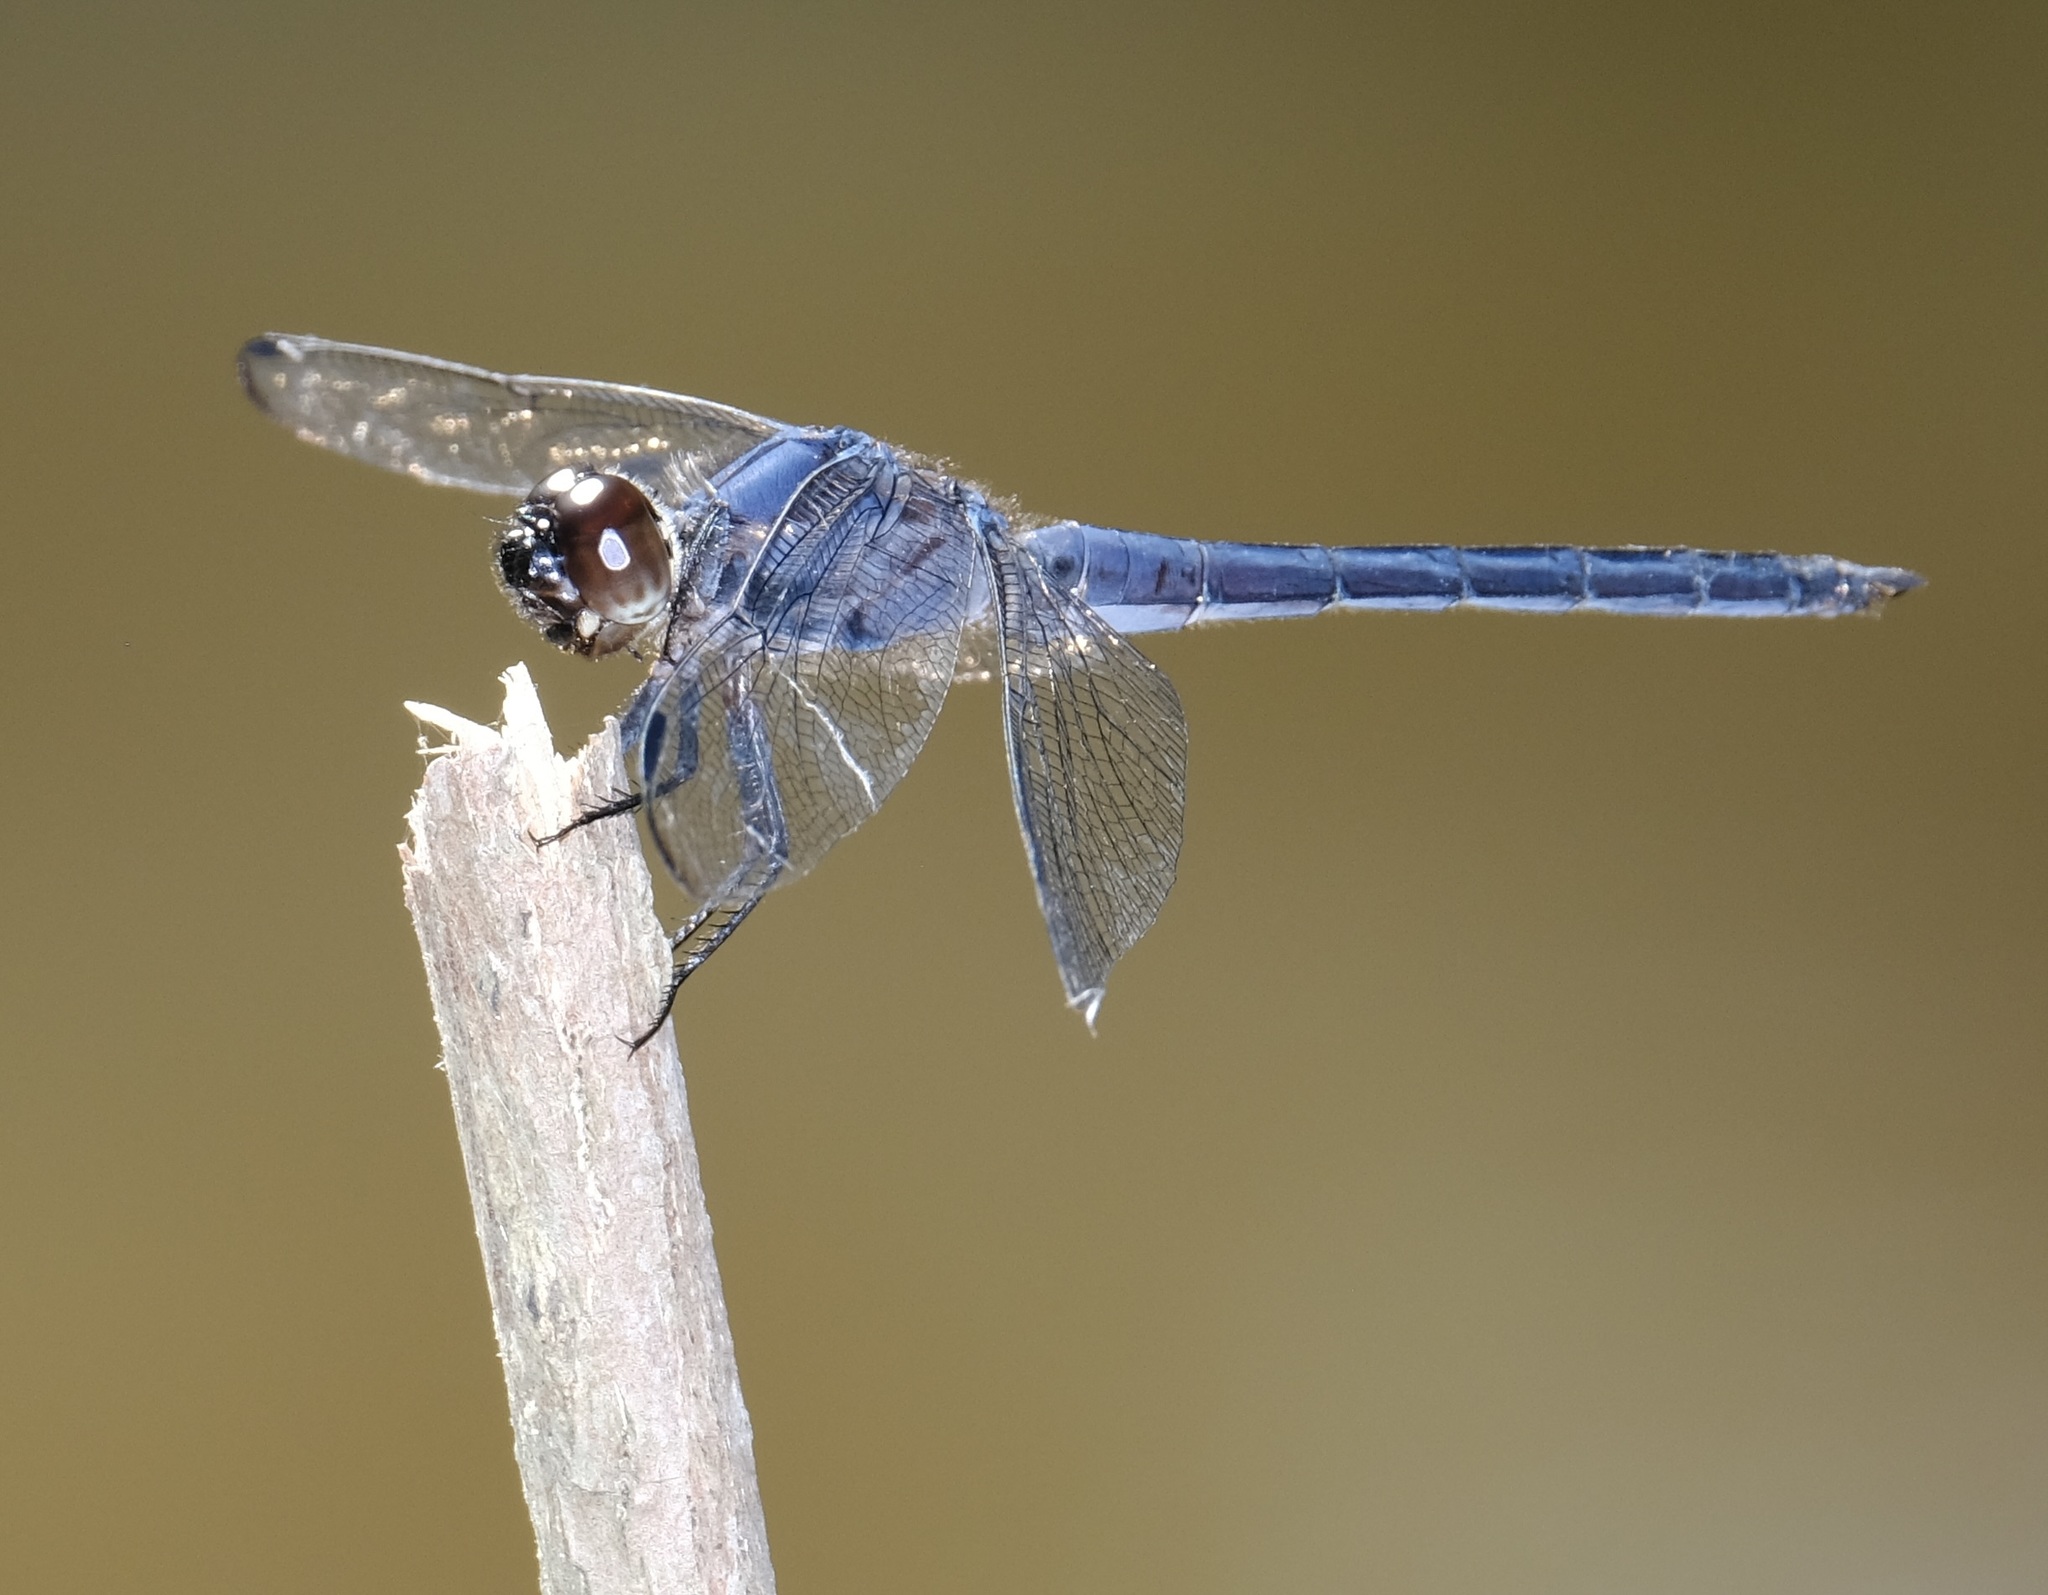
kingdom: Animalia
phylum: Arthropoda
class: Insecta
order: Odonata
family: Libellulidae
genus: Libellula
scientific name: Libellula incesta
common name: Slaty skimmer
